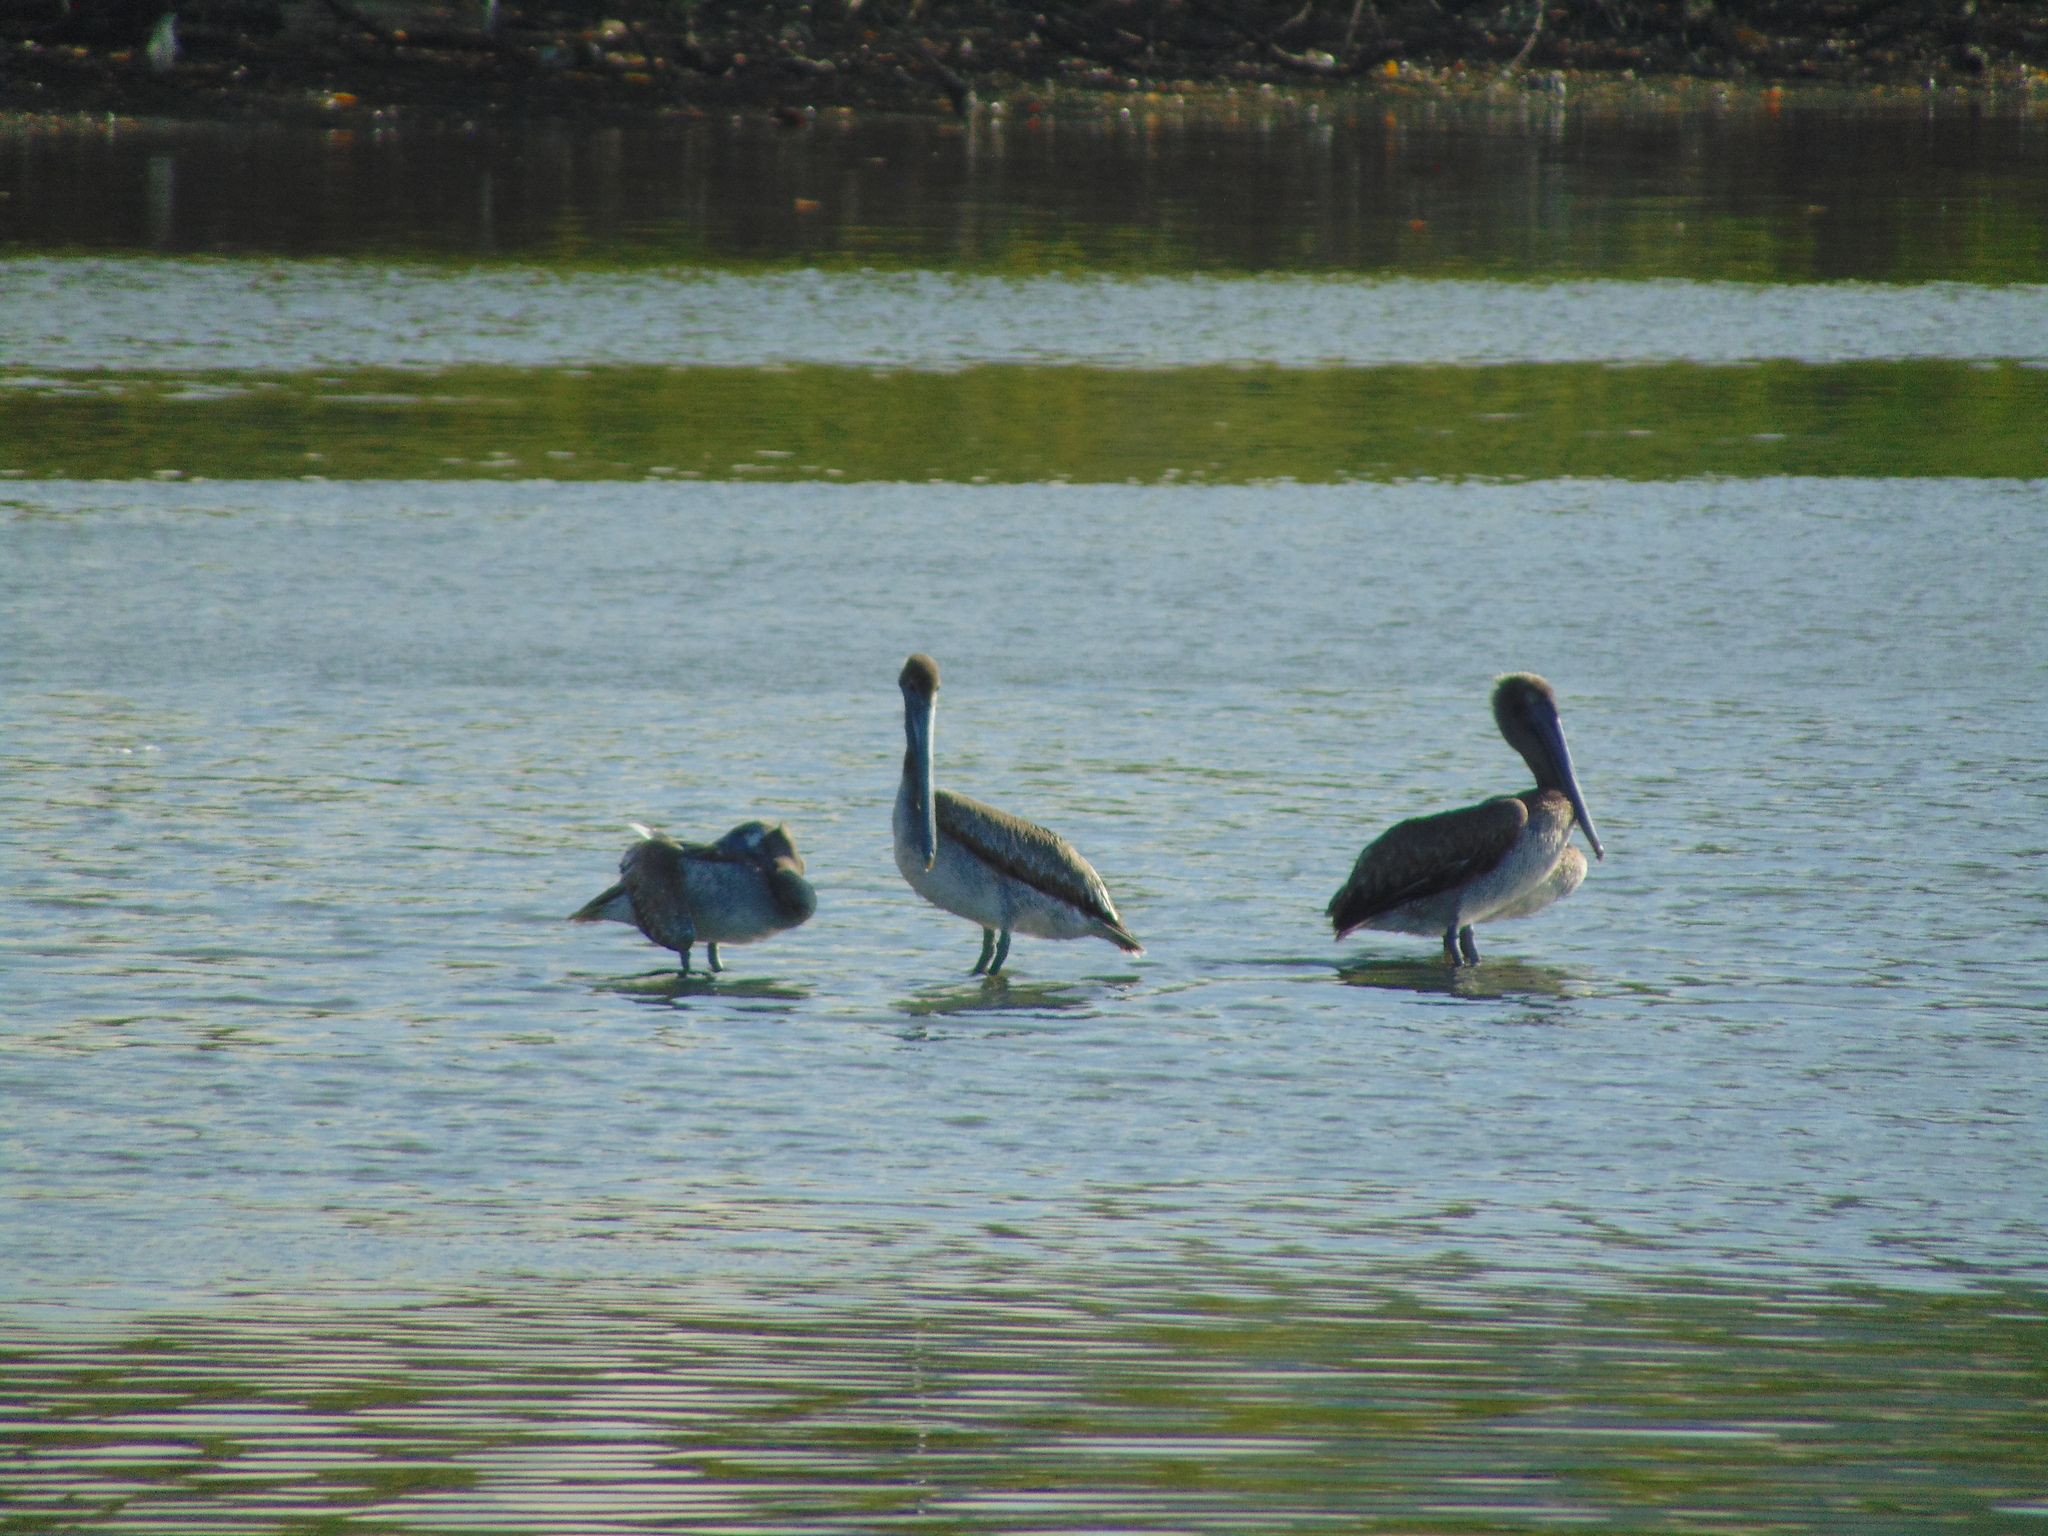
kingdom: Animalia
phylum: Chordata
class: Aves
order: Pelecaniformes
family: Pelecanidae
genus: Pelecanus
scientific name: Pelecanus occidentalis
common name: Brown pelican
